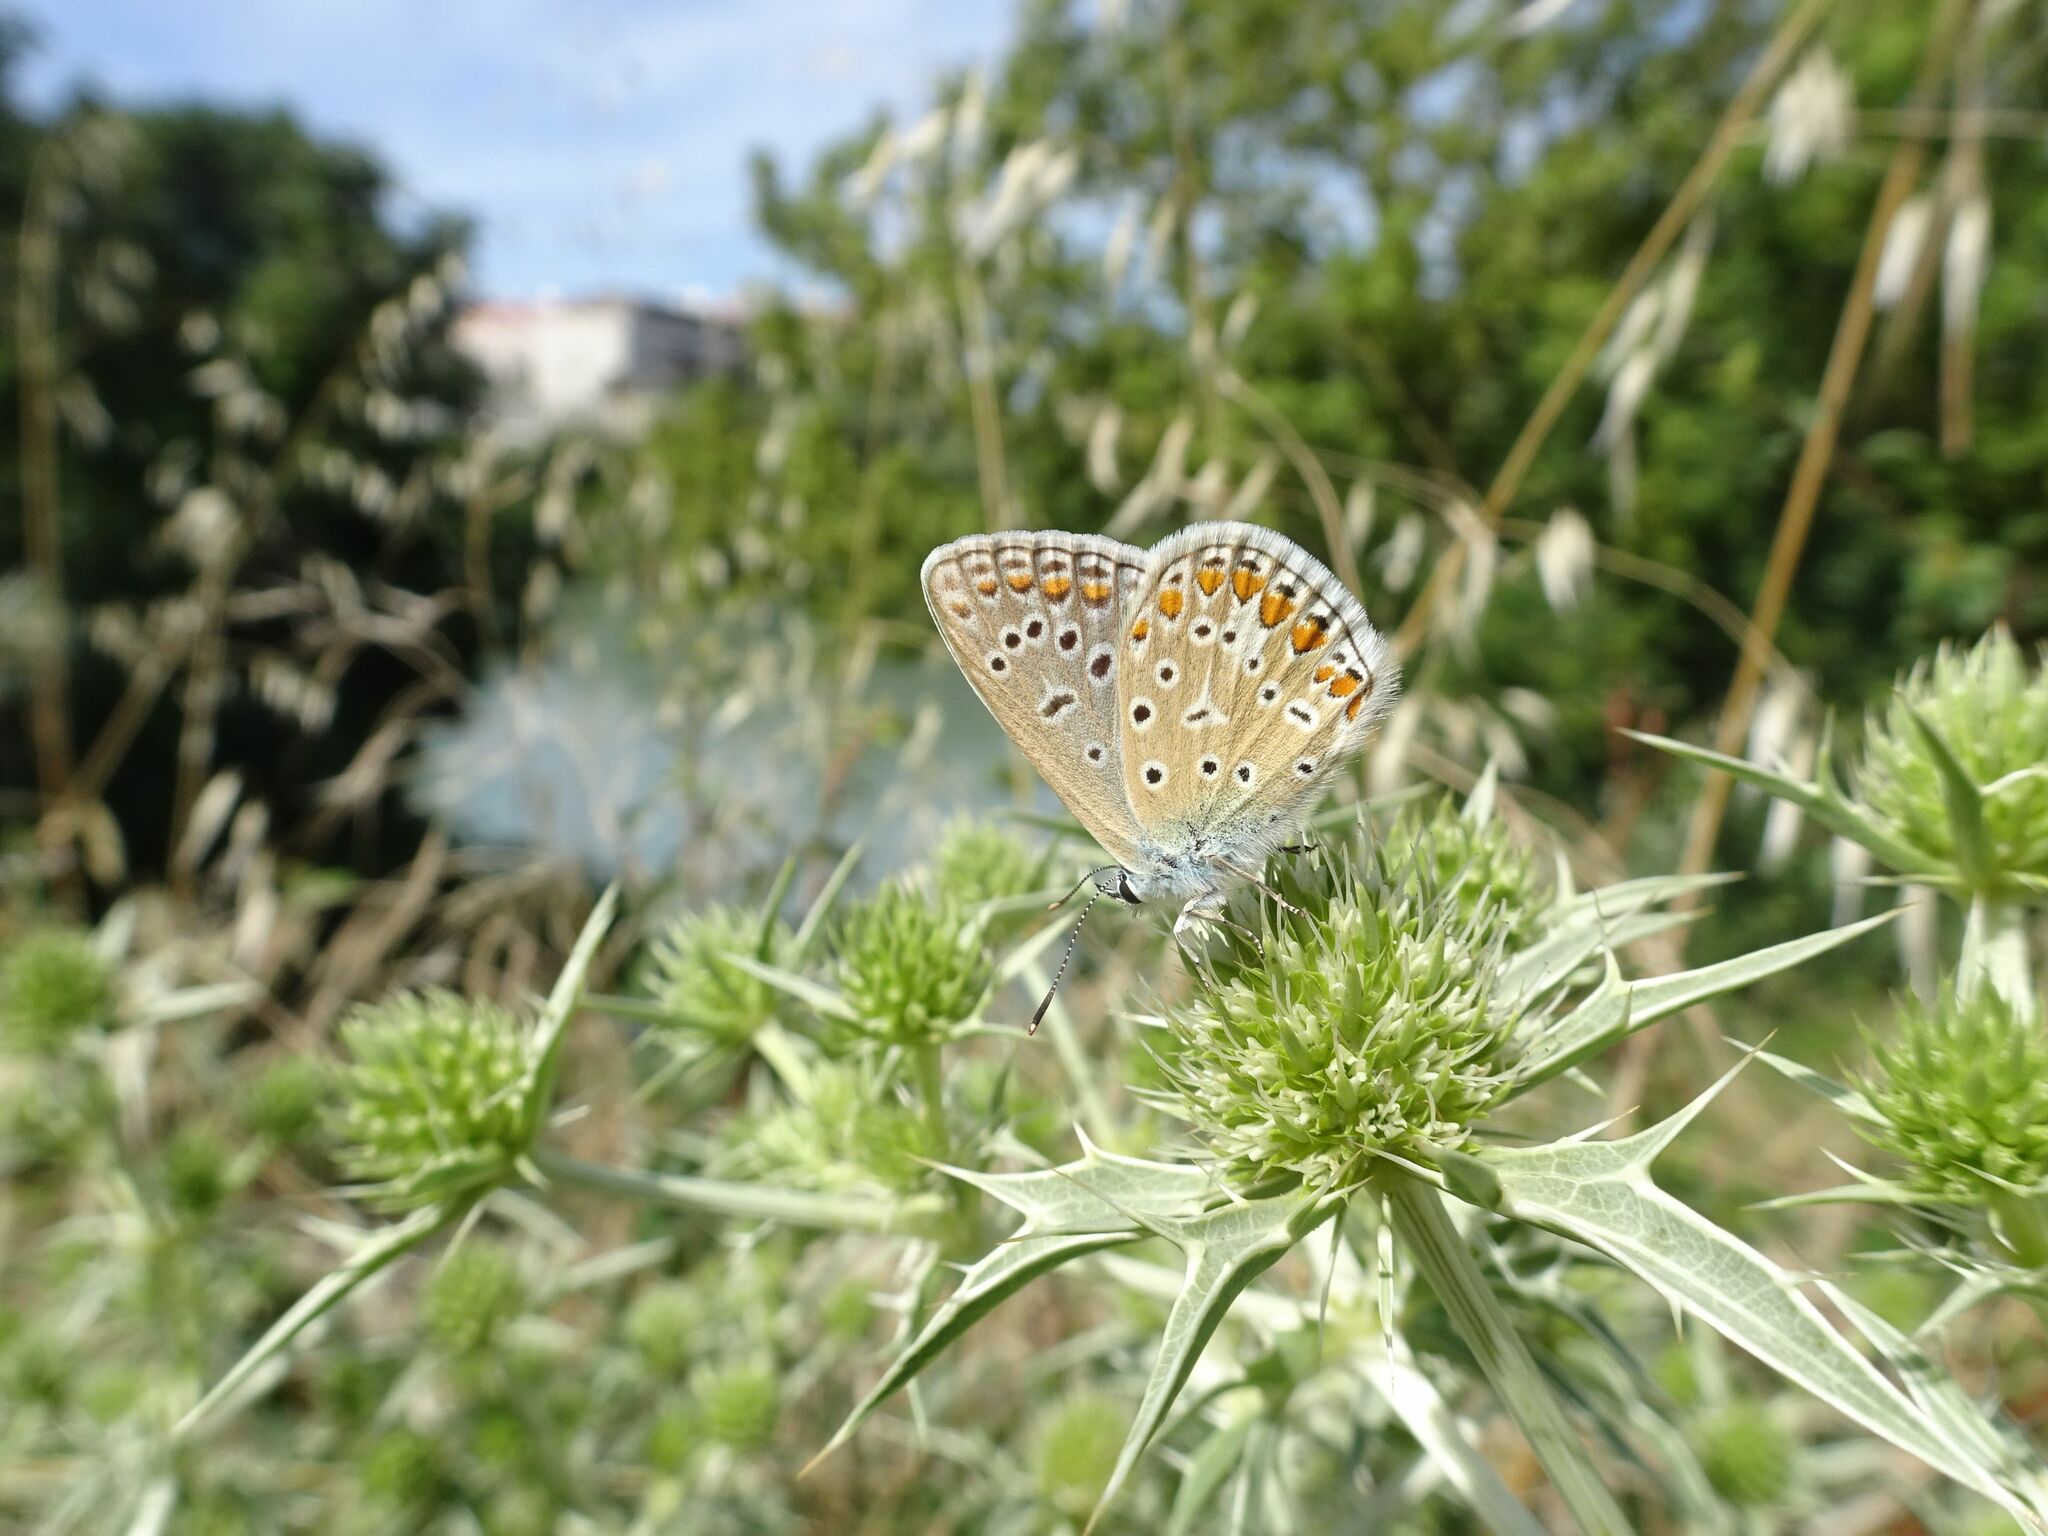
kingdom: Animalia
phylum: Arthropoda
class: Insecta
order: Lepidoptera
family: Lycaenidae
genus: Polyommatus
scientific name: Polyommatus icarus
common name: Common blue
